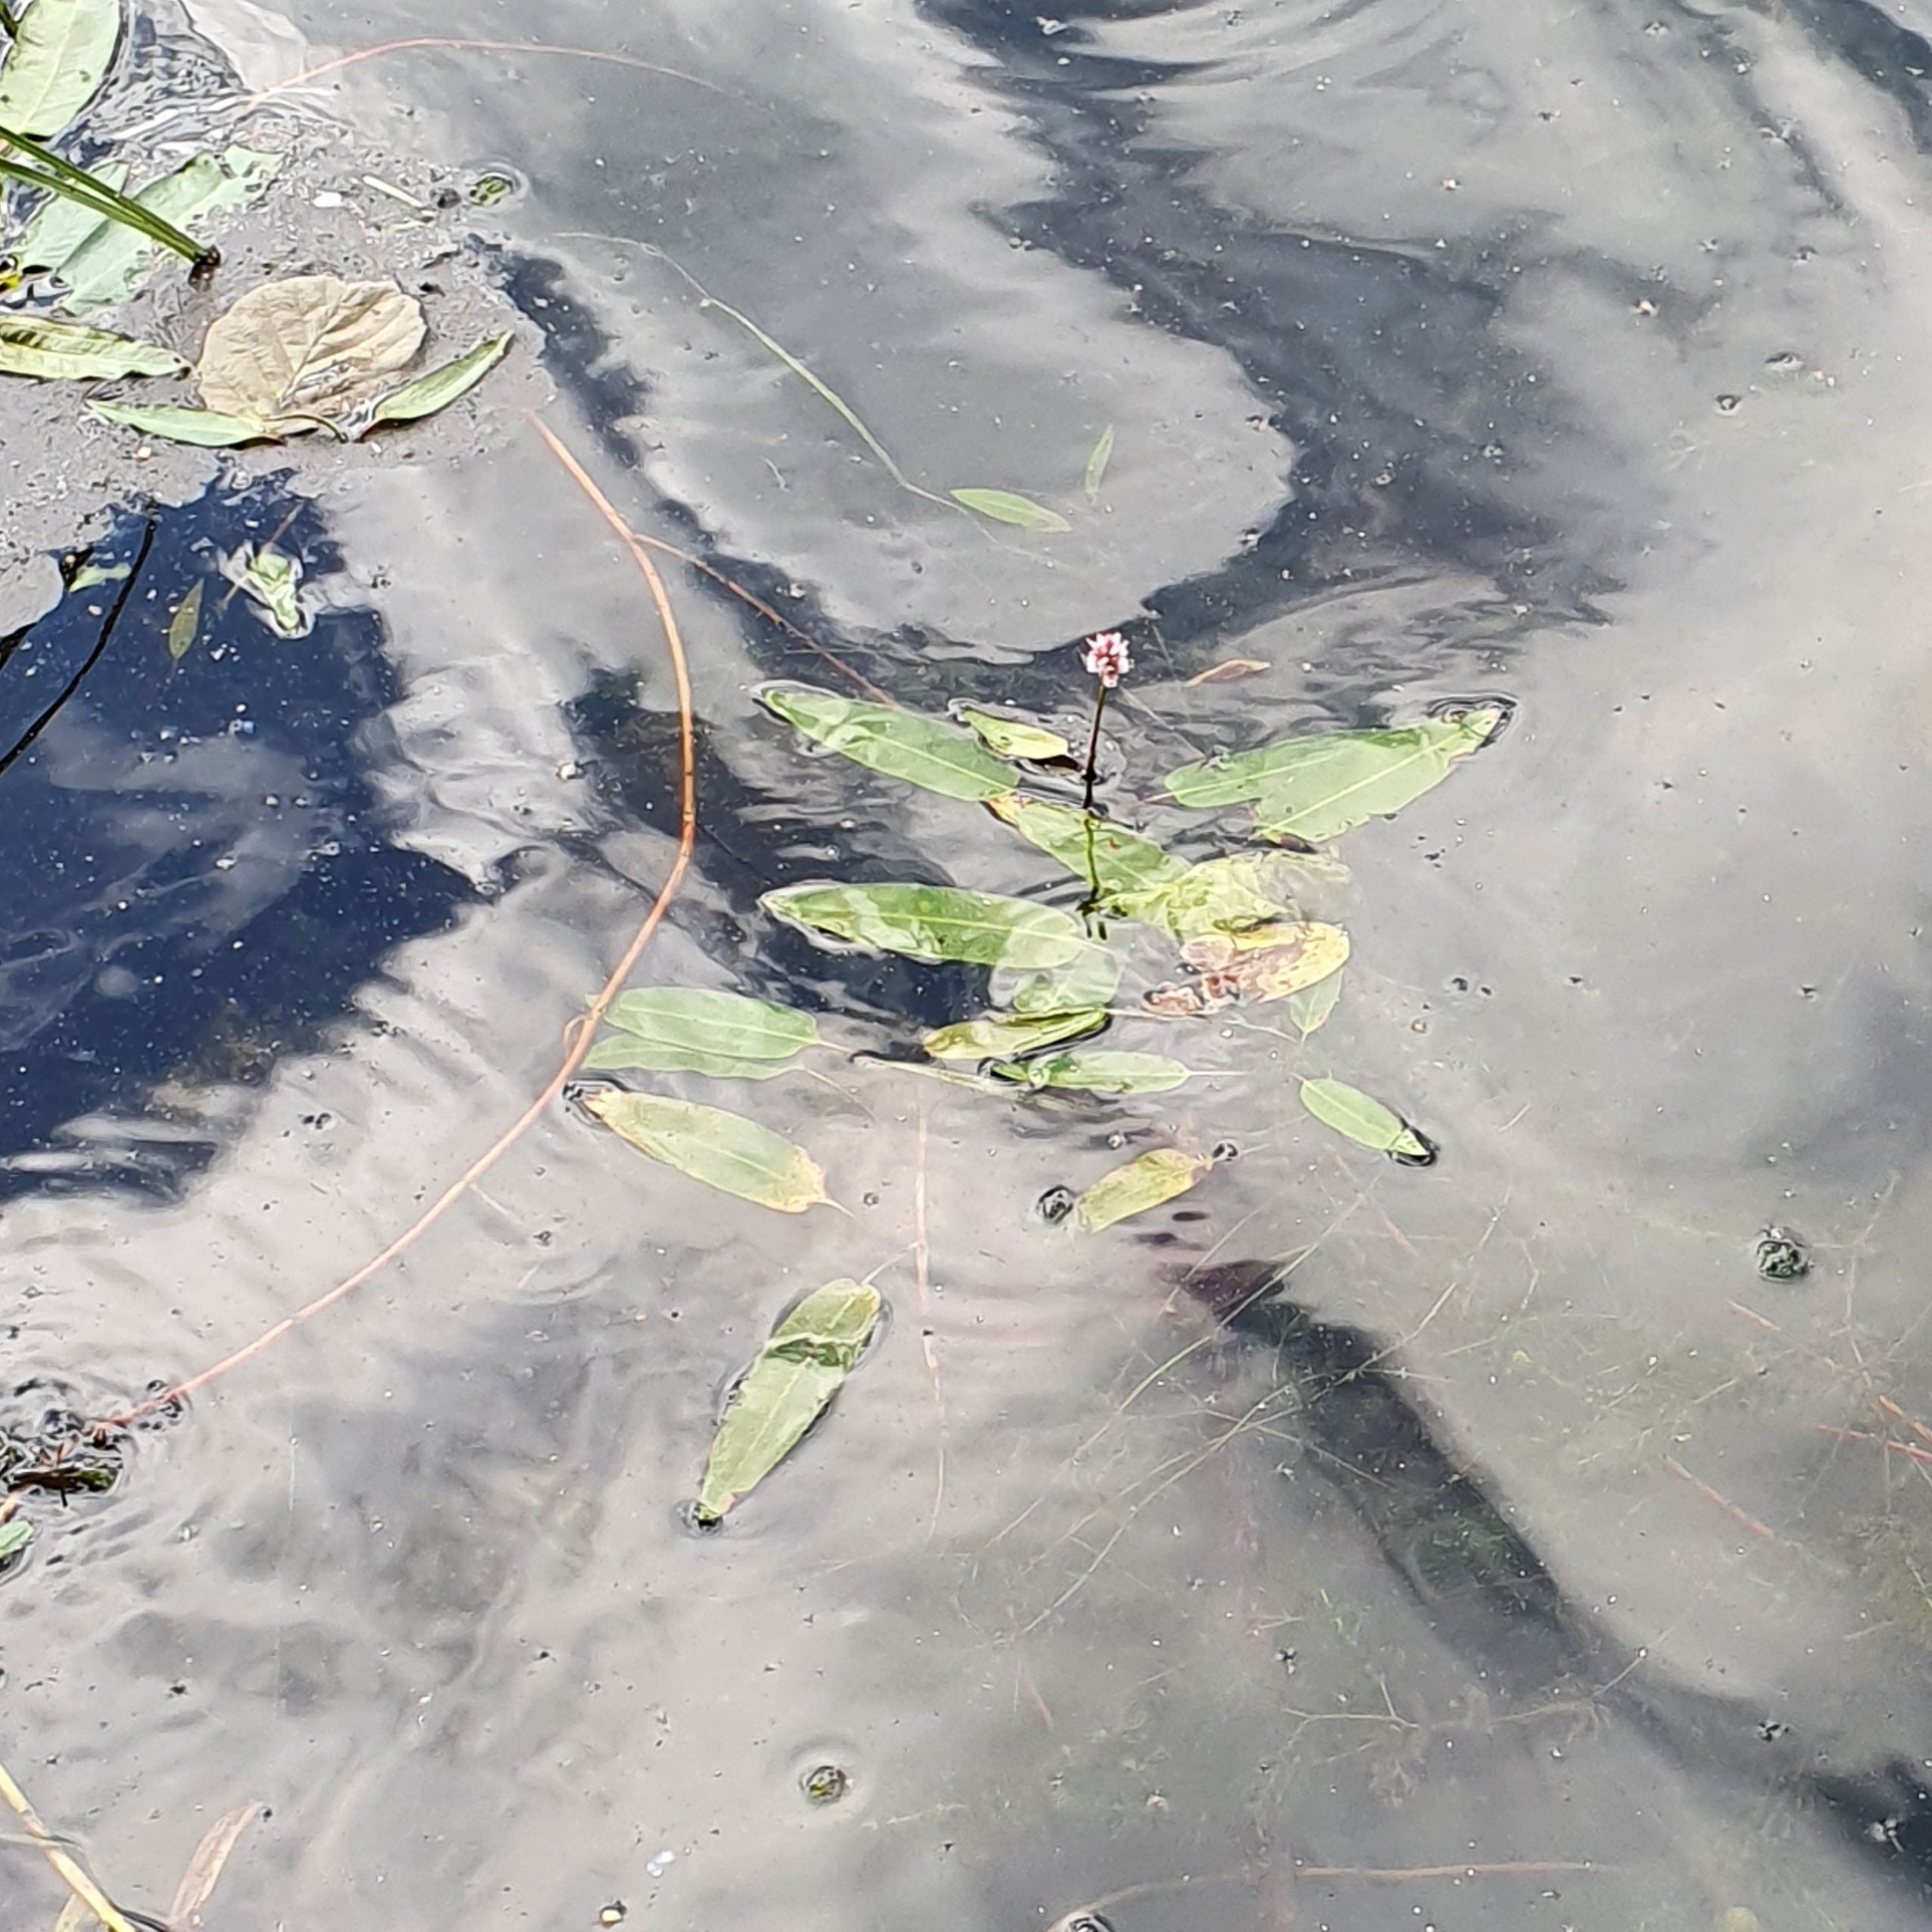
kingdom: Plantae
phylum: Tracheophyta
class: Magnoliopsida
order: Caryophyllales
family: Polygonaceae
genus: Persicaria
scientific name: Persicaria amphibia
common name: Amphibious bistort
